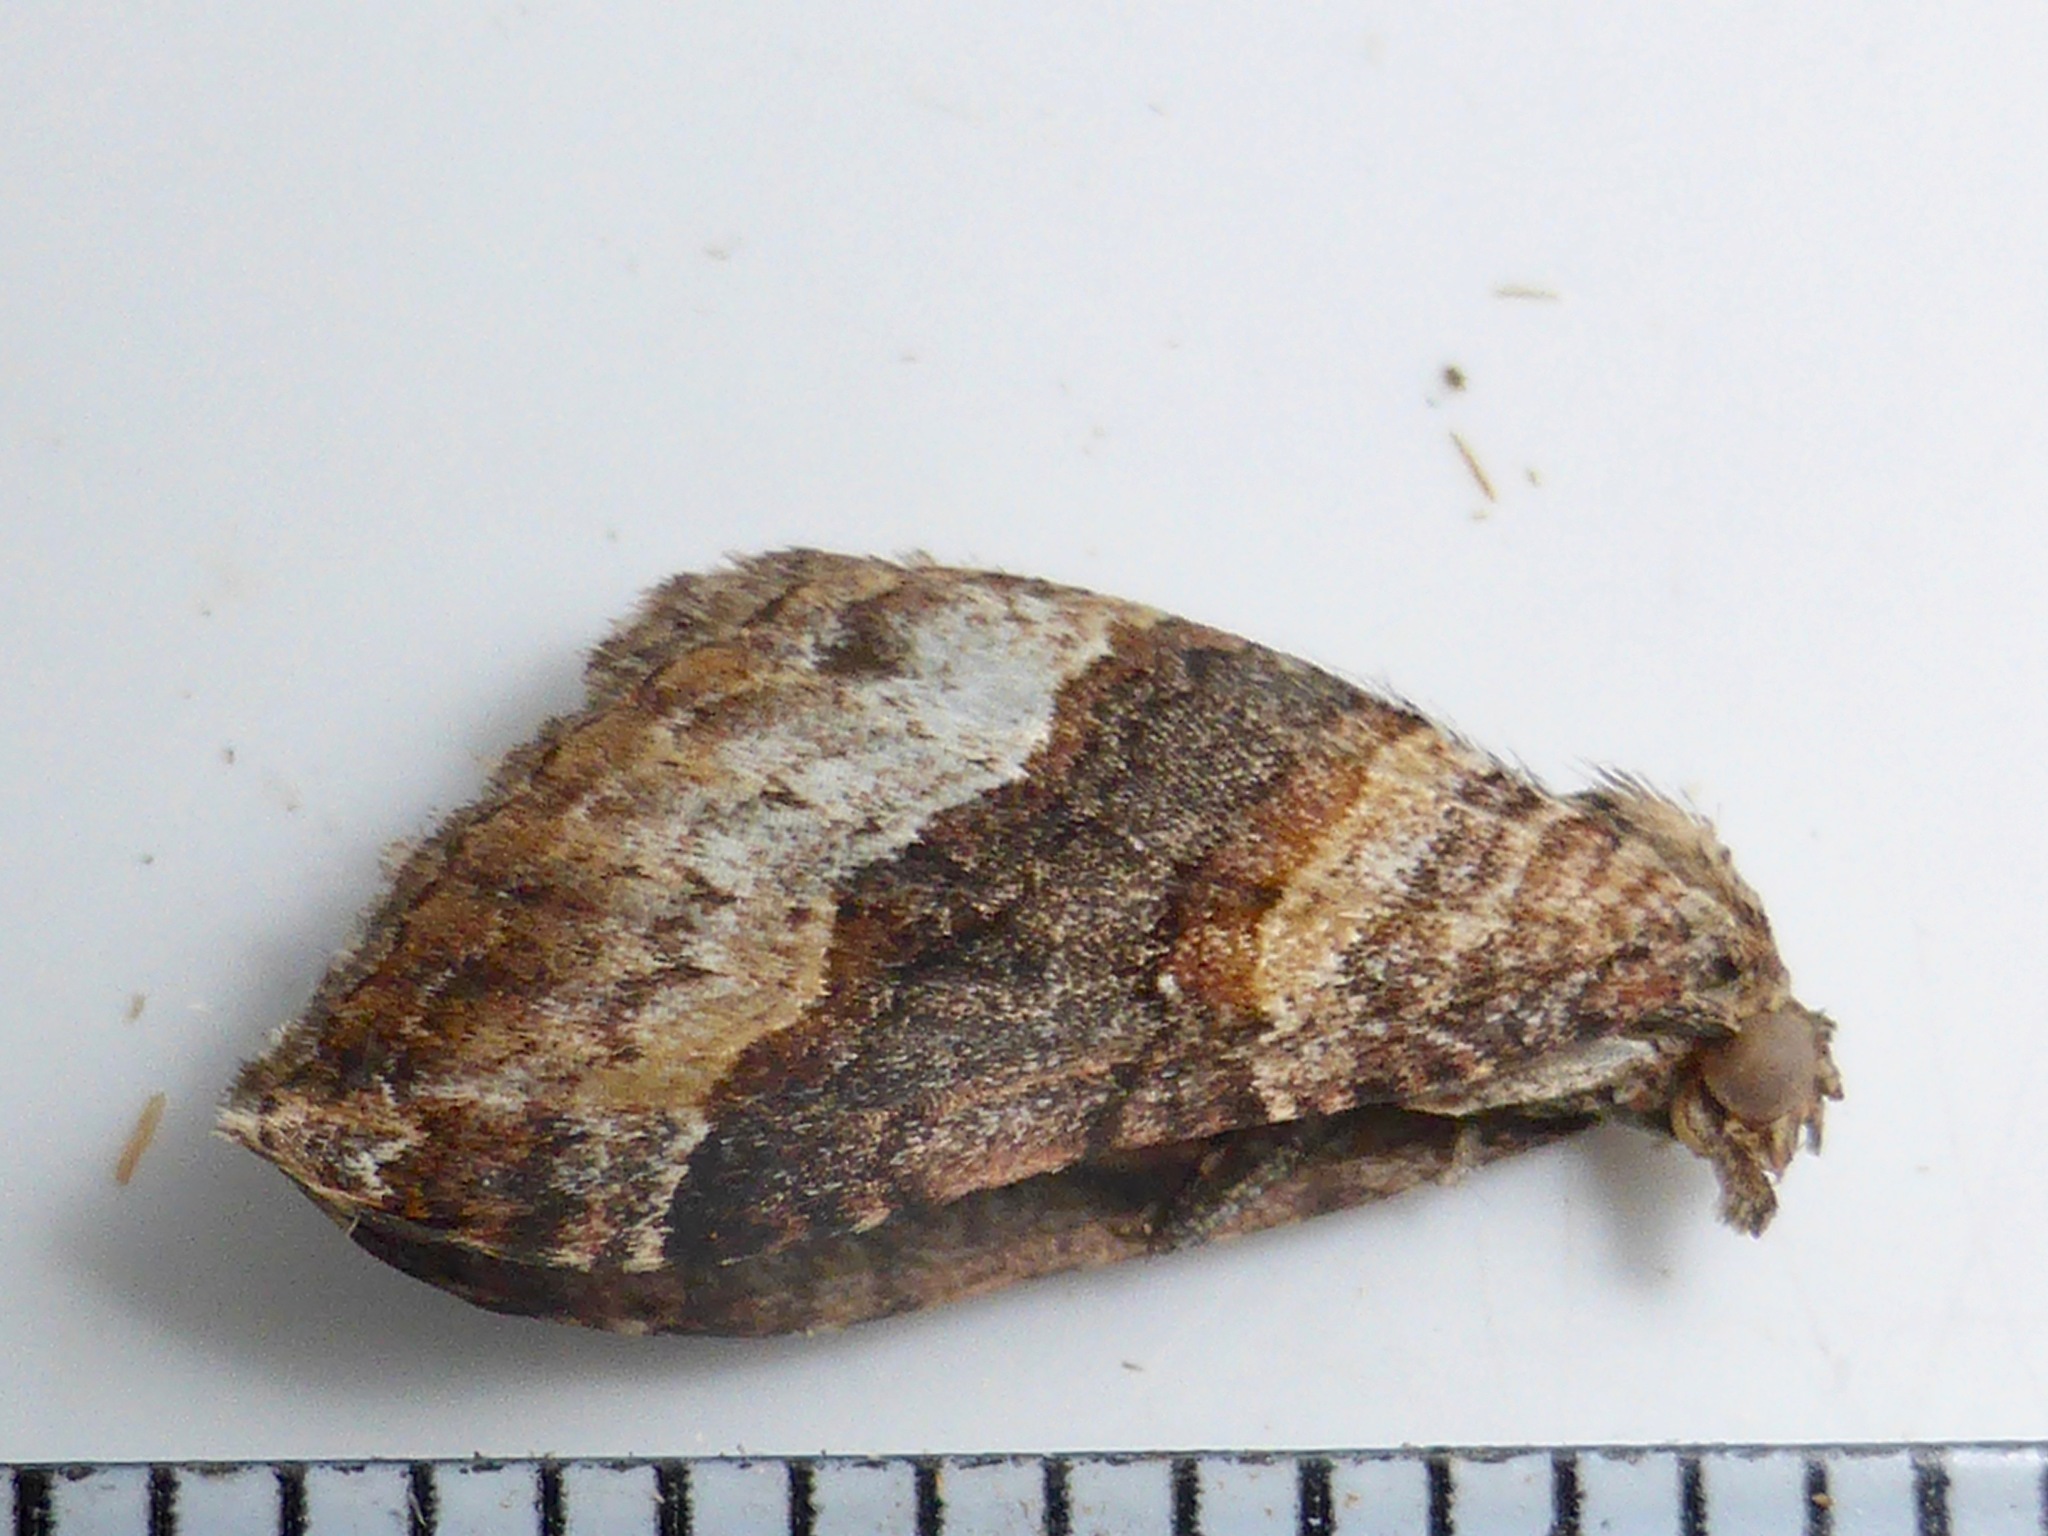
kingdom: Animalia
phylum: Arthropoda
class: Insecta
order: Lepidoptera
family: Geometridae
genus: Epyaxa
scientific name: Epyaxa lucidata
